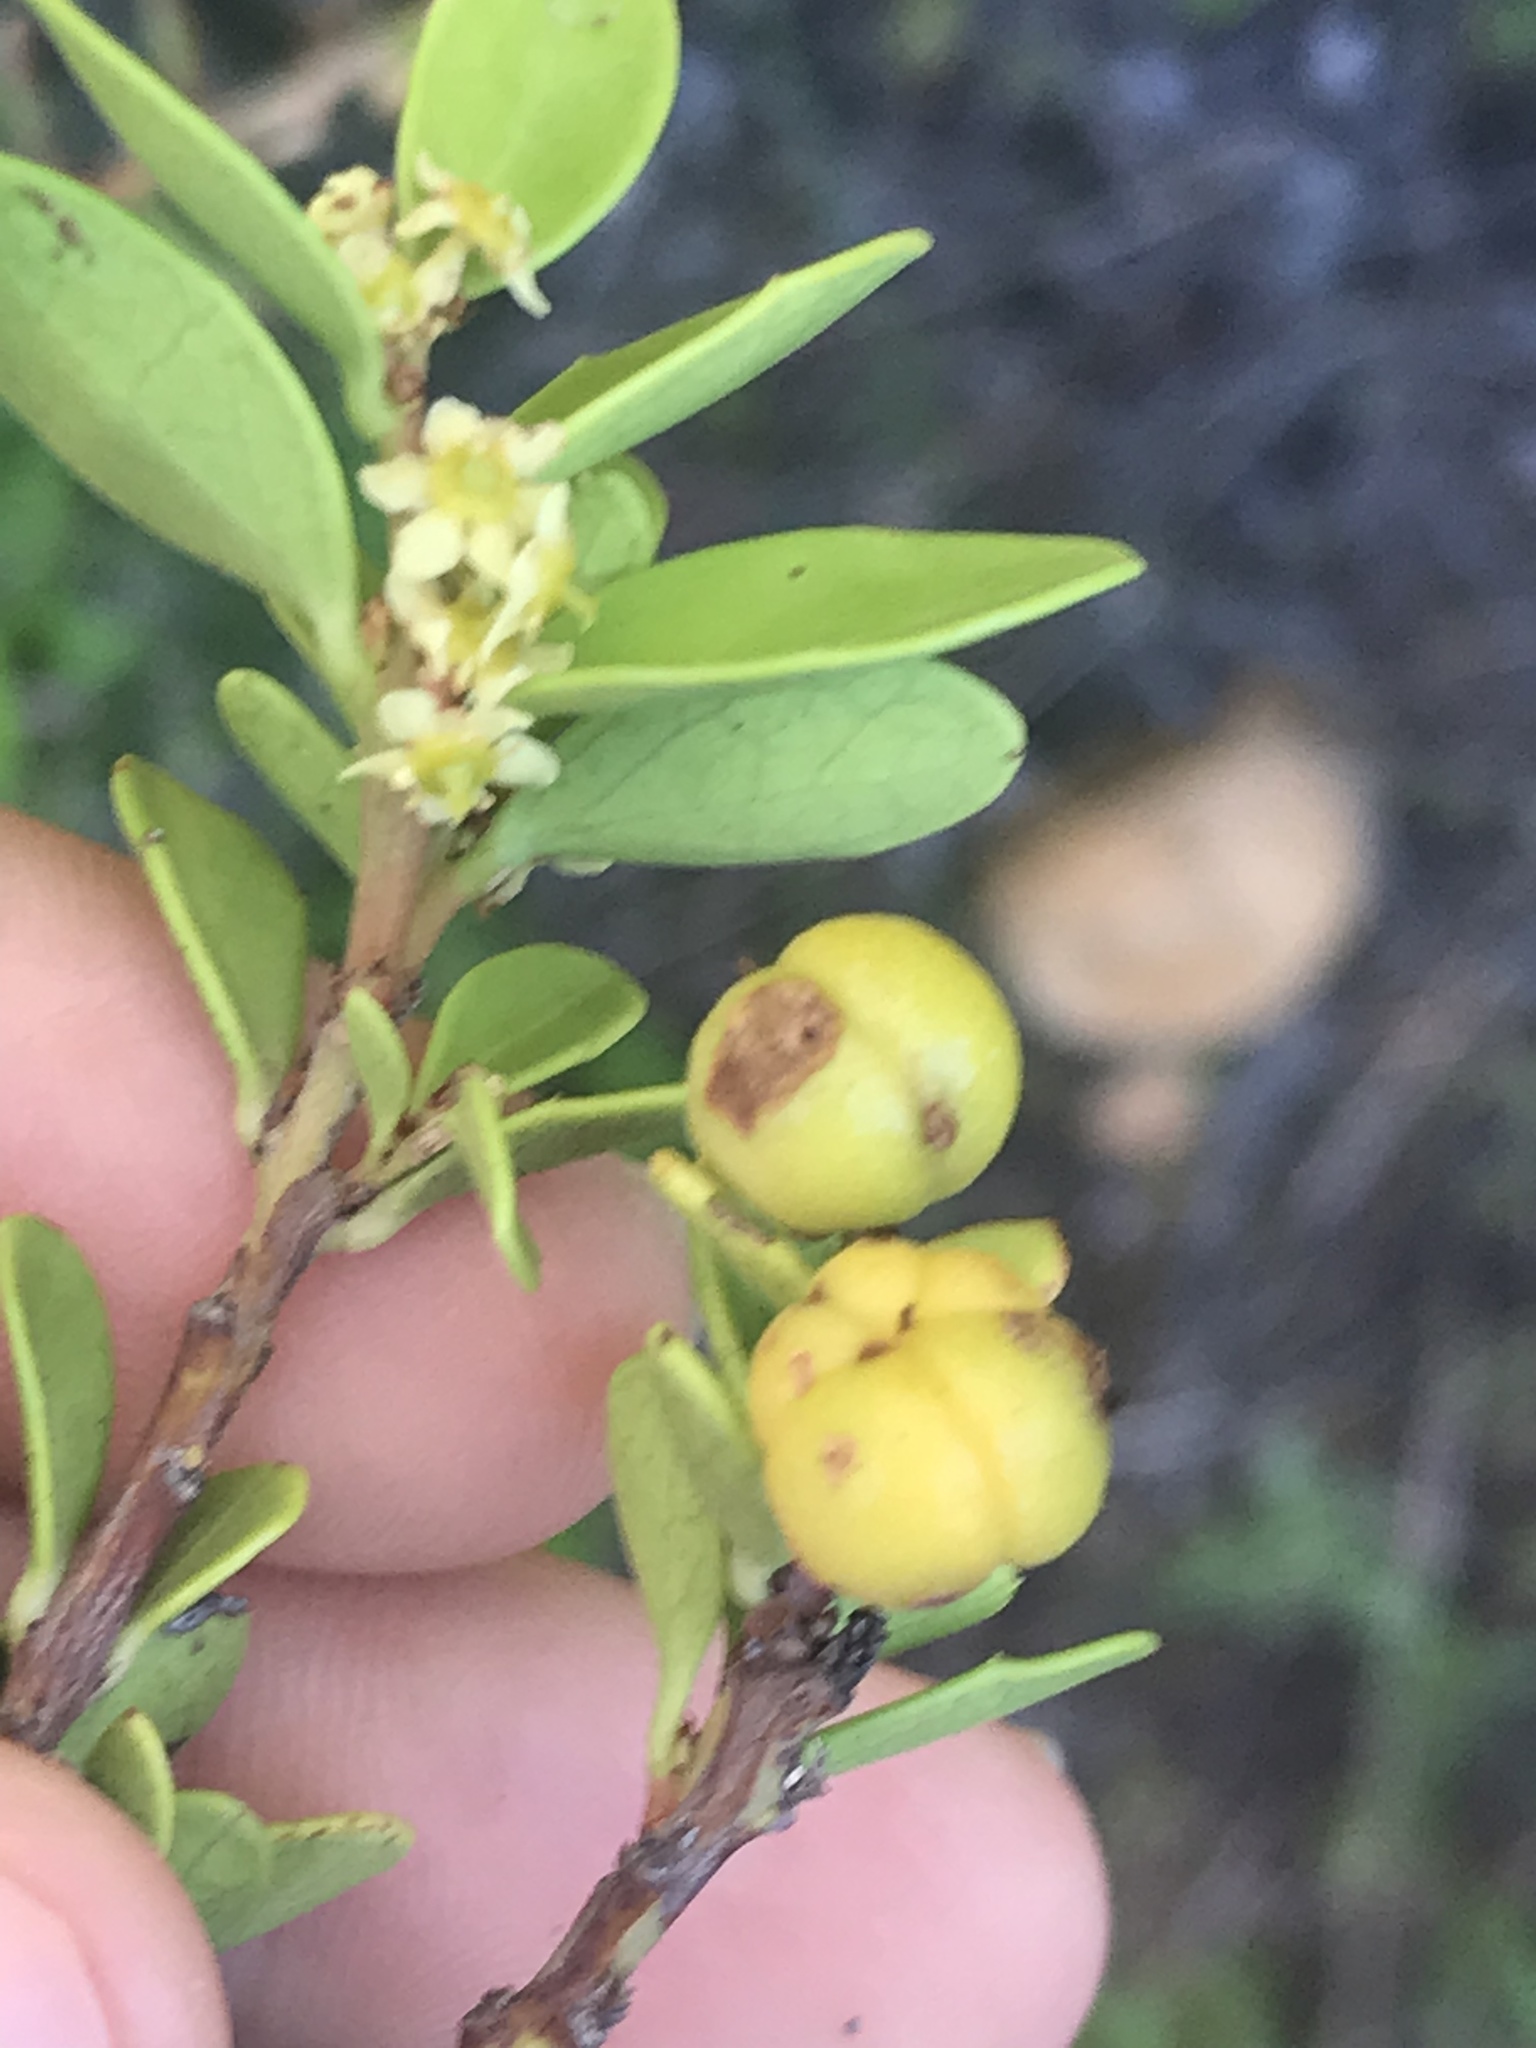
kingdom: Plantae
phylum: Tracheophyta
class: Magnoliopsida
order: Celastrales
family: Celastraceae
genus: Gymnosporia
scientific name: Gymnosporia lucida
